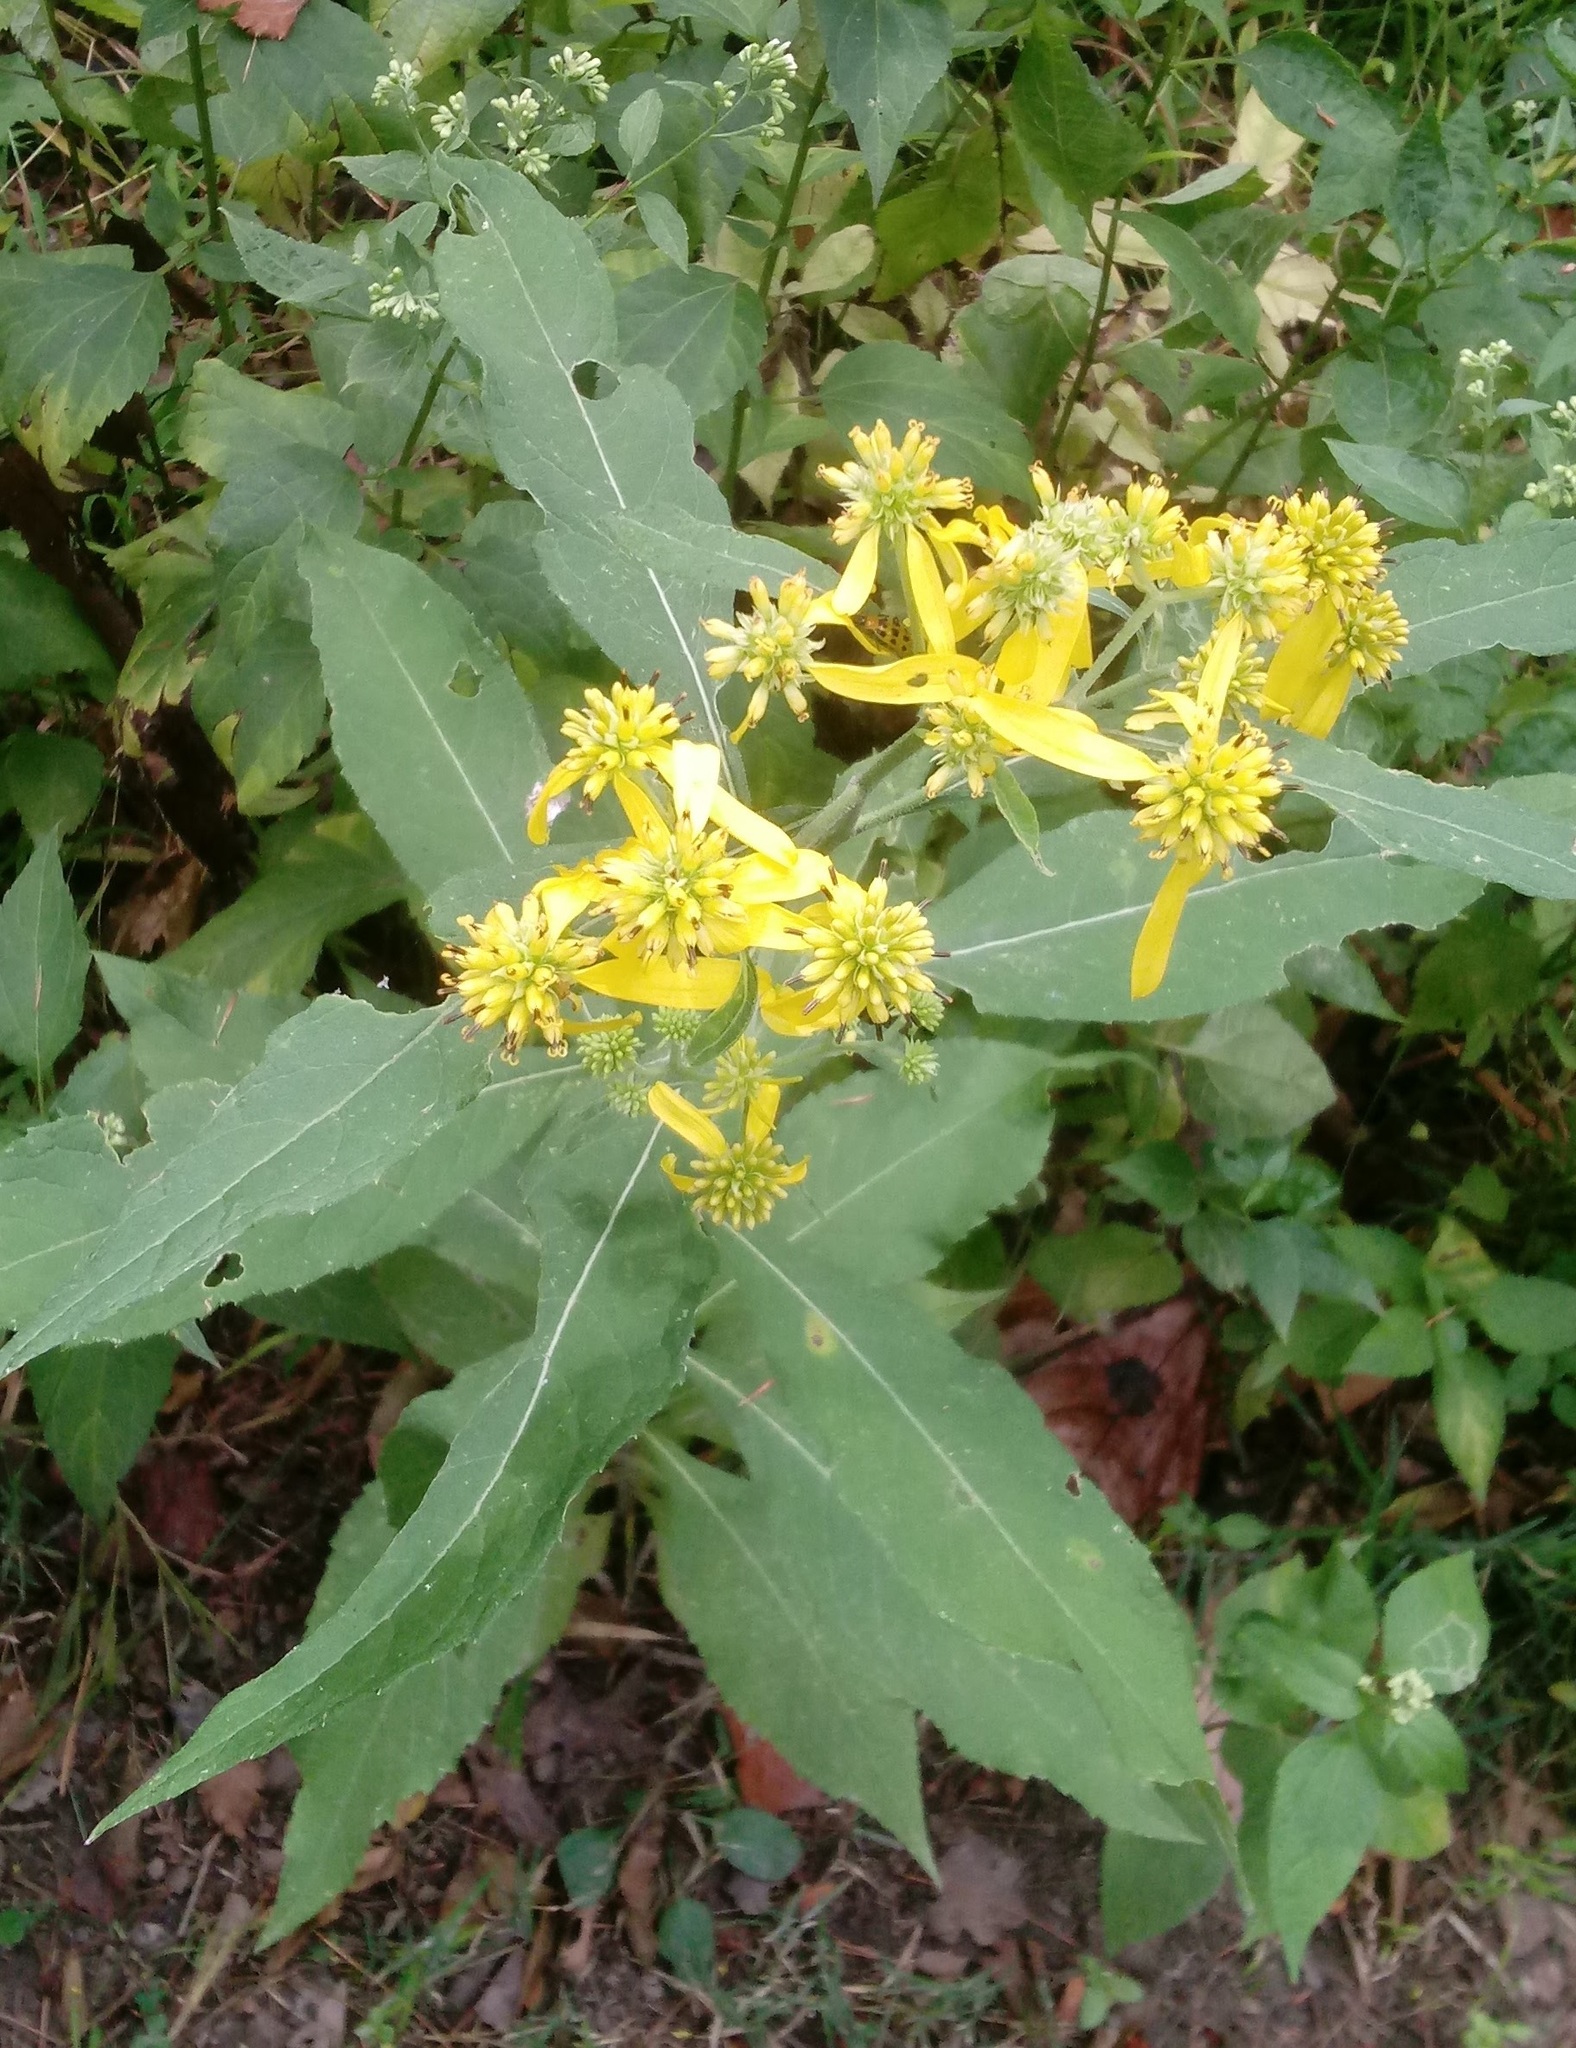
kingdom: Plantae
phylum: Tracheophyta
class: Magnoliopsida
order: Asterales
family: Asteraceae
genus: Verbesina
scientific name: Verbesina alternifolia
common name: Wingstem
